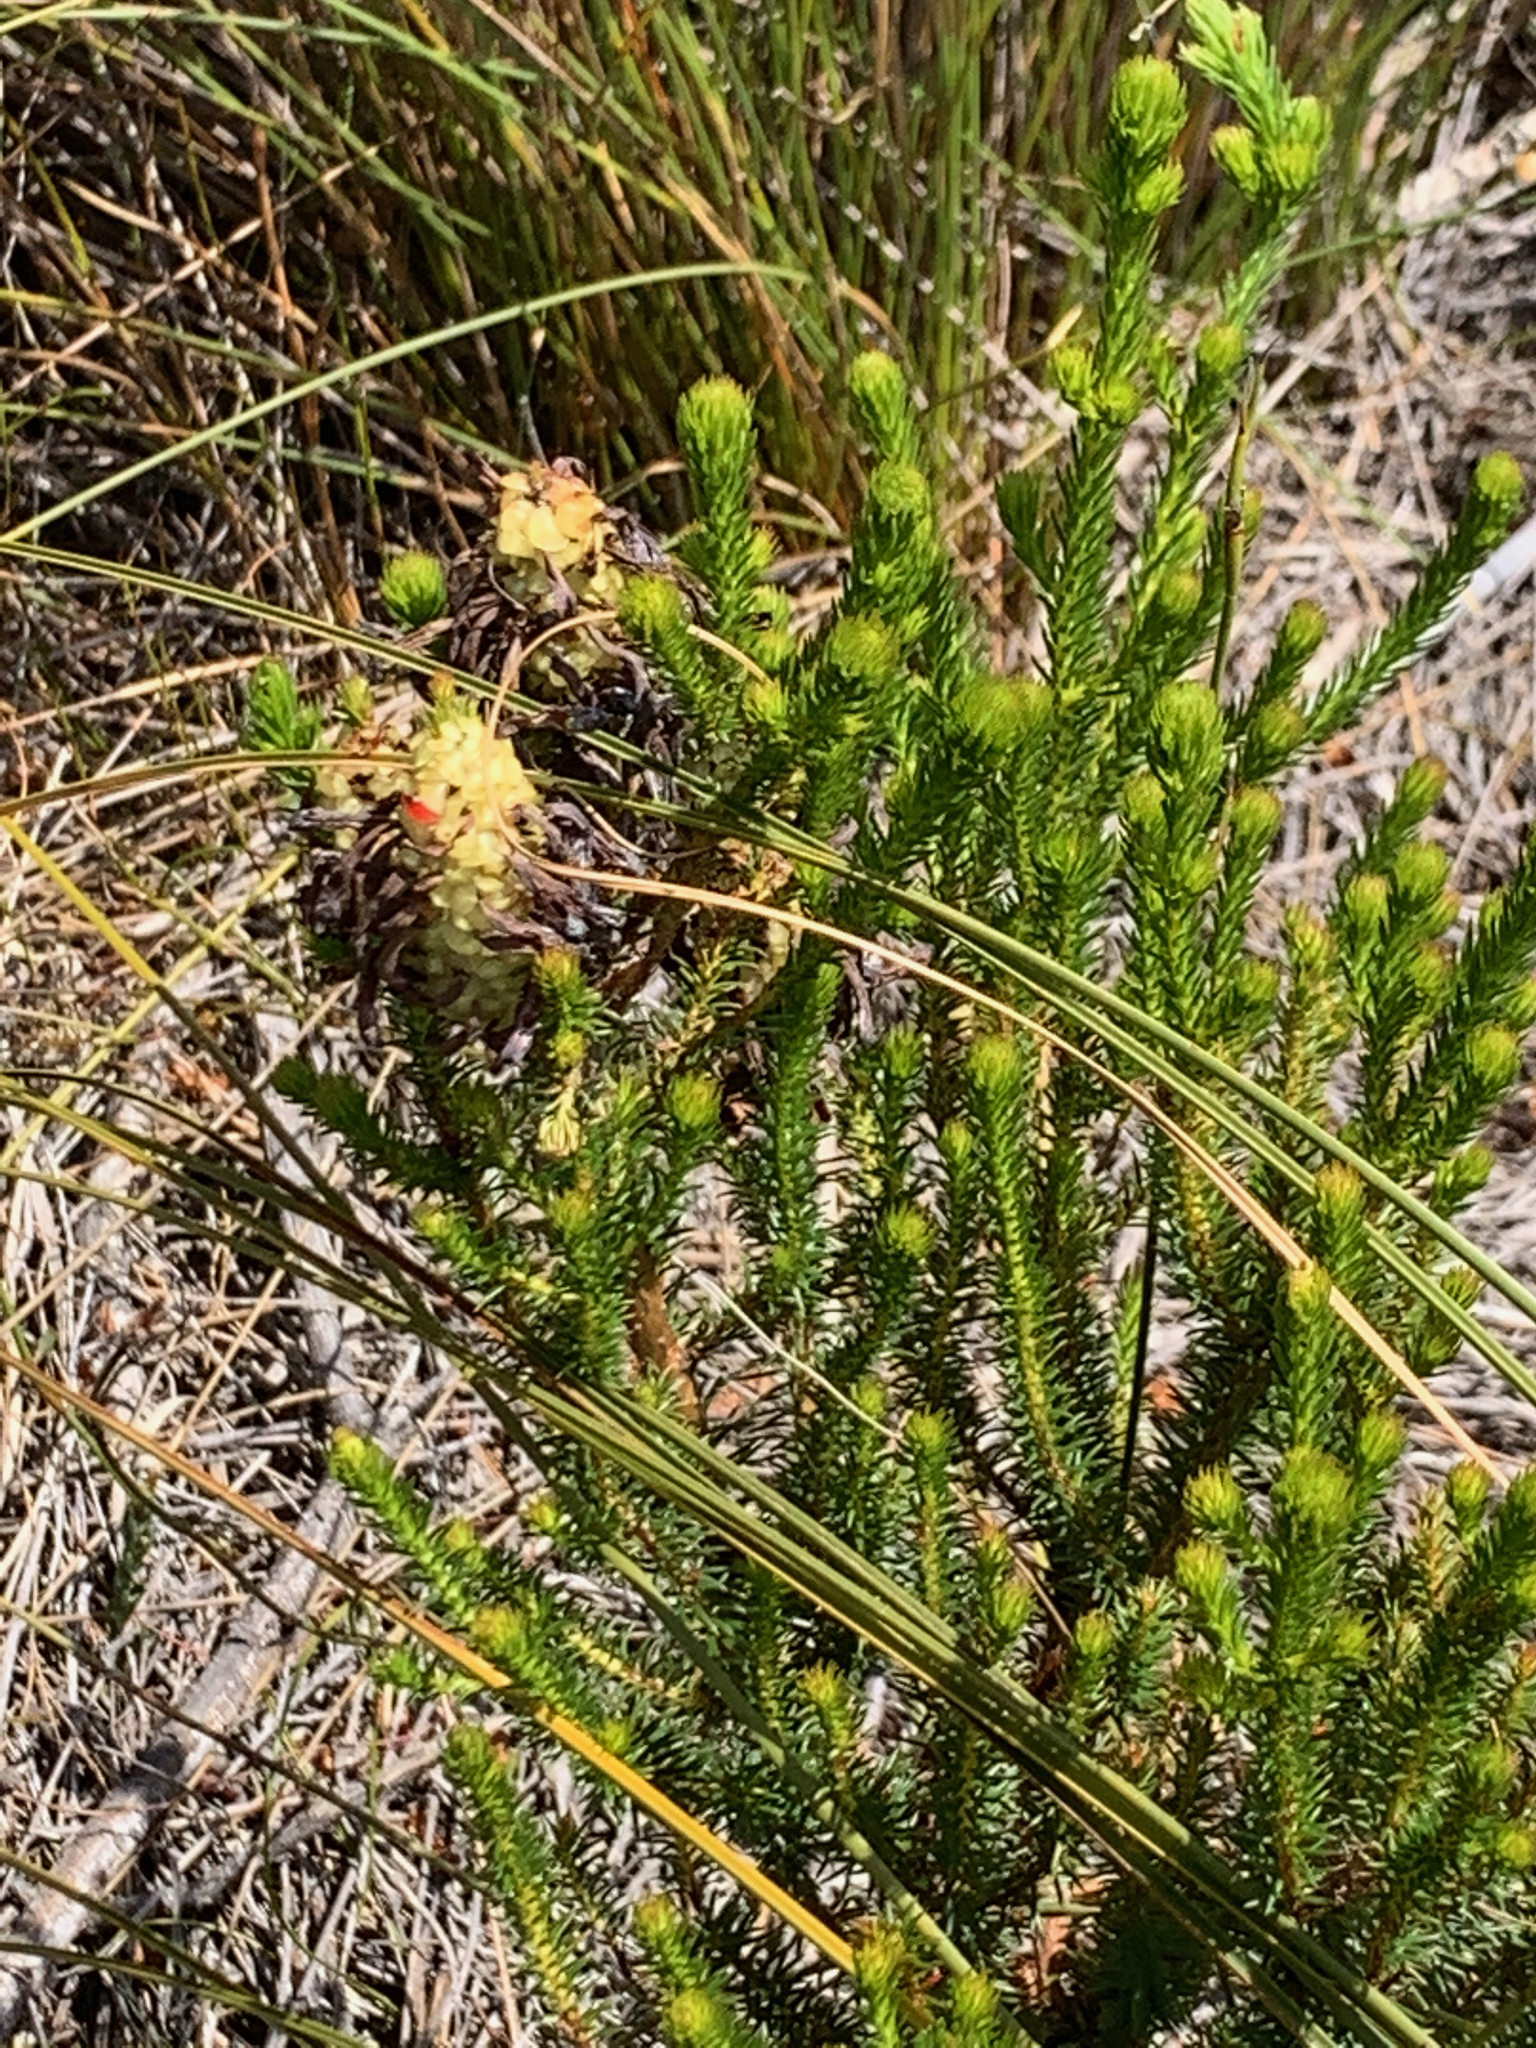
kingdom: Plantae
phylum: Tracheophyta
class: Magnoliopsida
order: Ericales
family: Ericaceae
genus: Erica
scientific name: Erica sessiliflora
